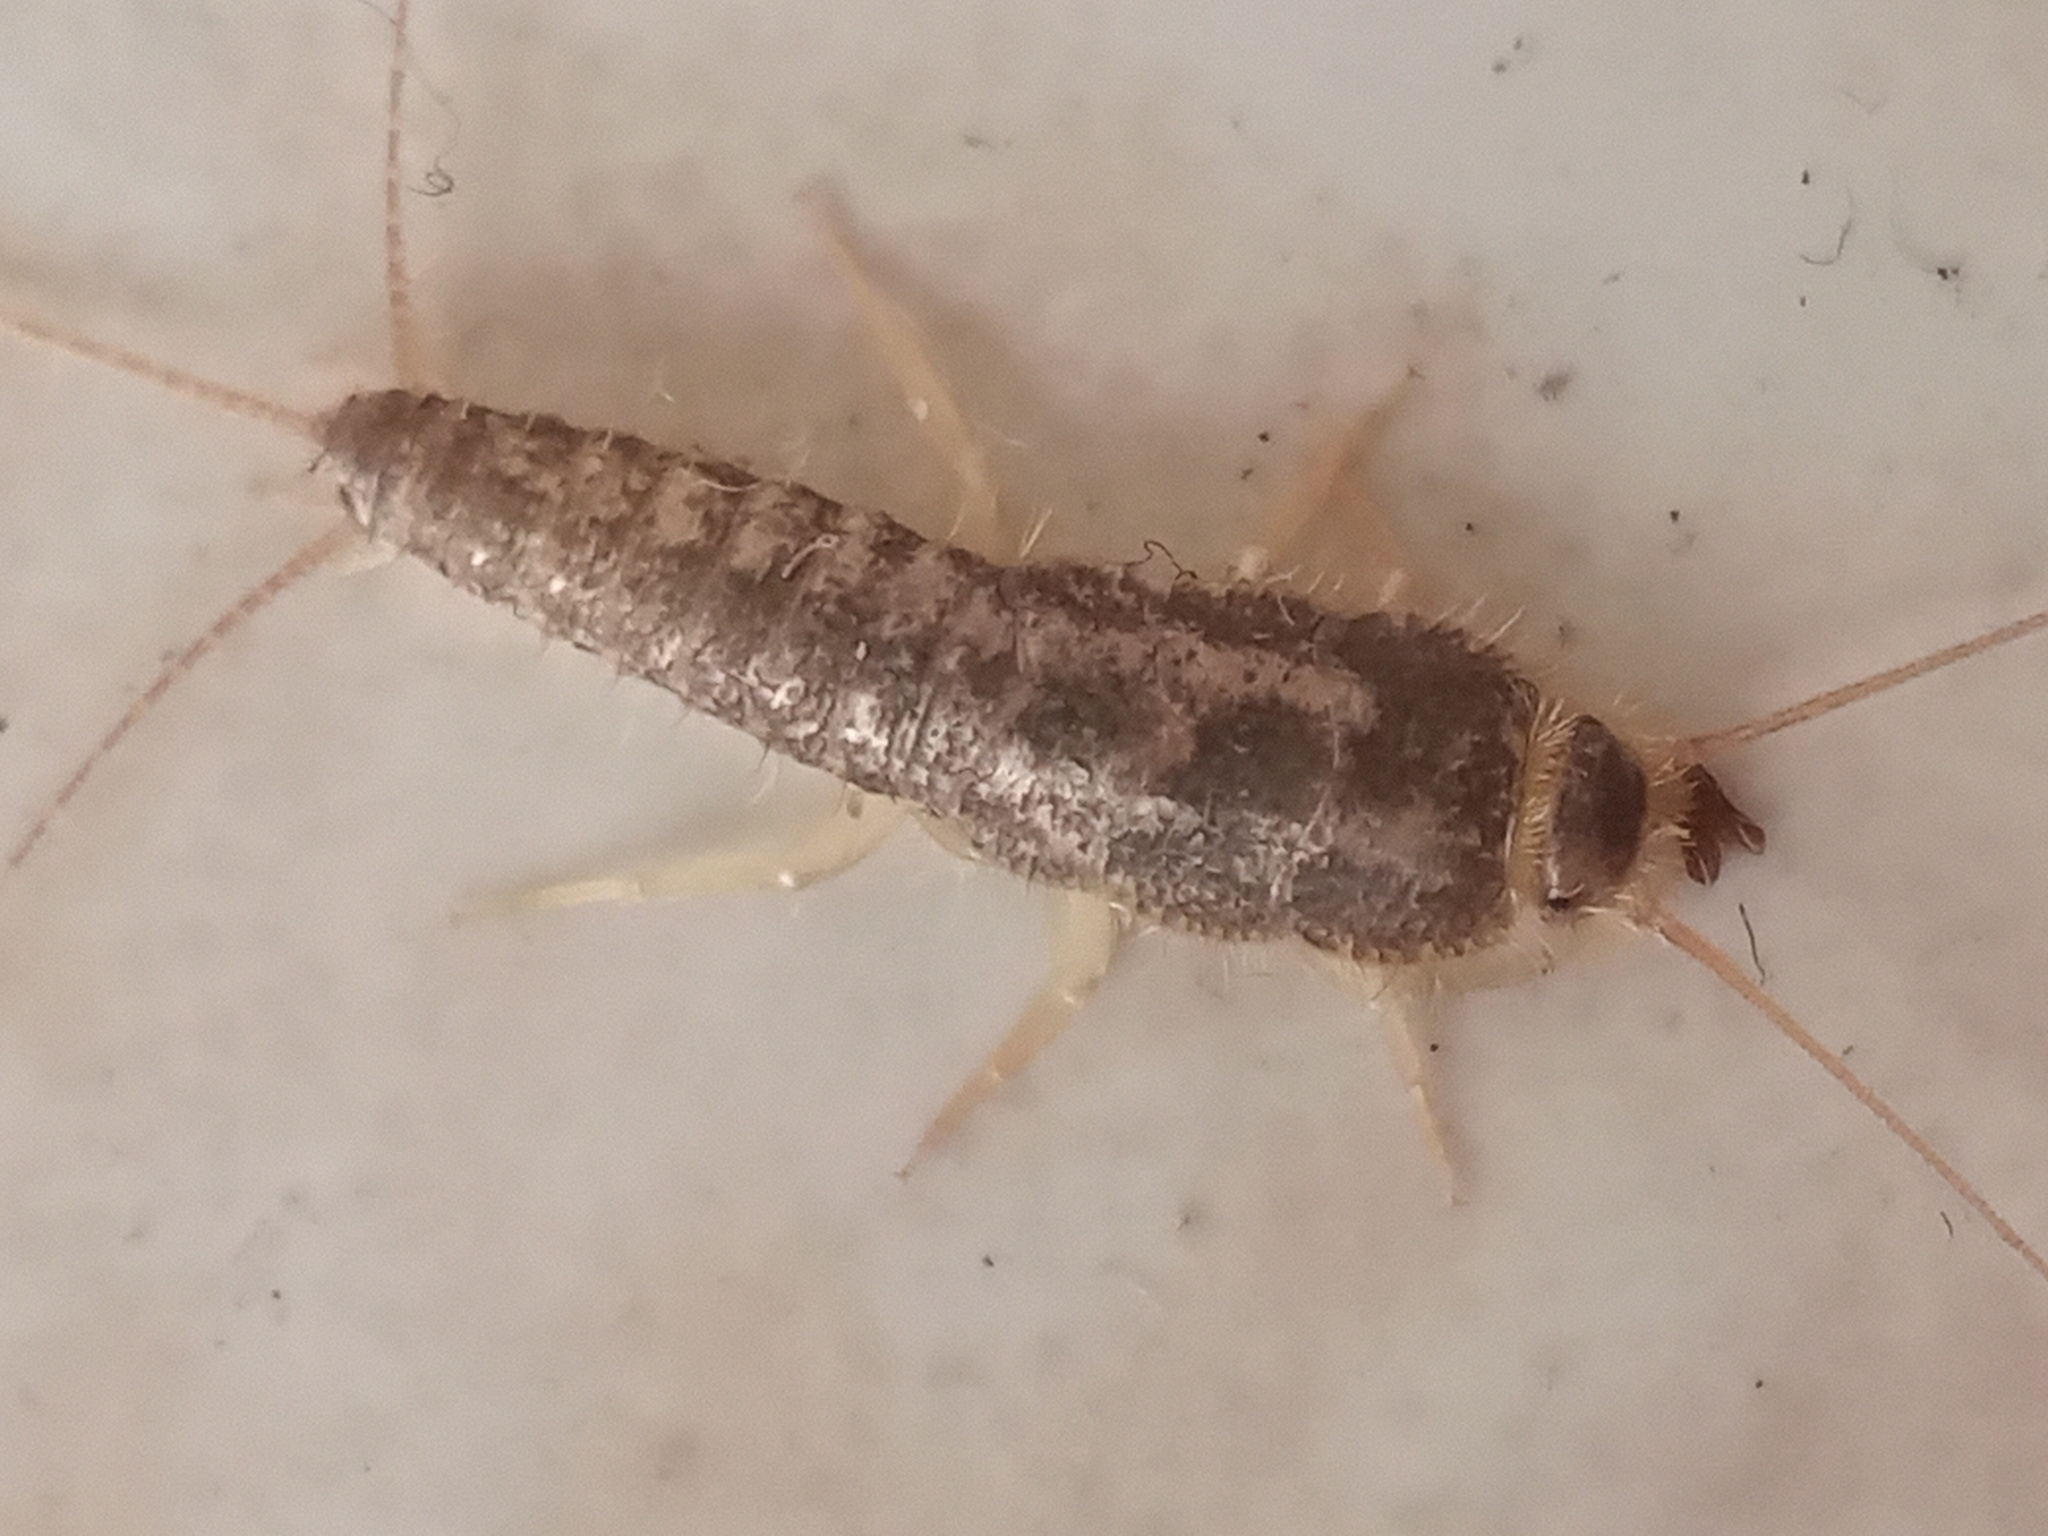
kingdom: Animalia
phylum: Arthropoda
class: Insecta
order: Zygentoma
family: Lepismatidae
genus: Ctenolepisma
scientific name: Ctenolepisma longicaudatum
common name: Silverfish
